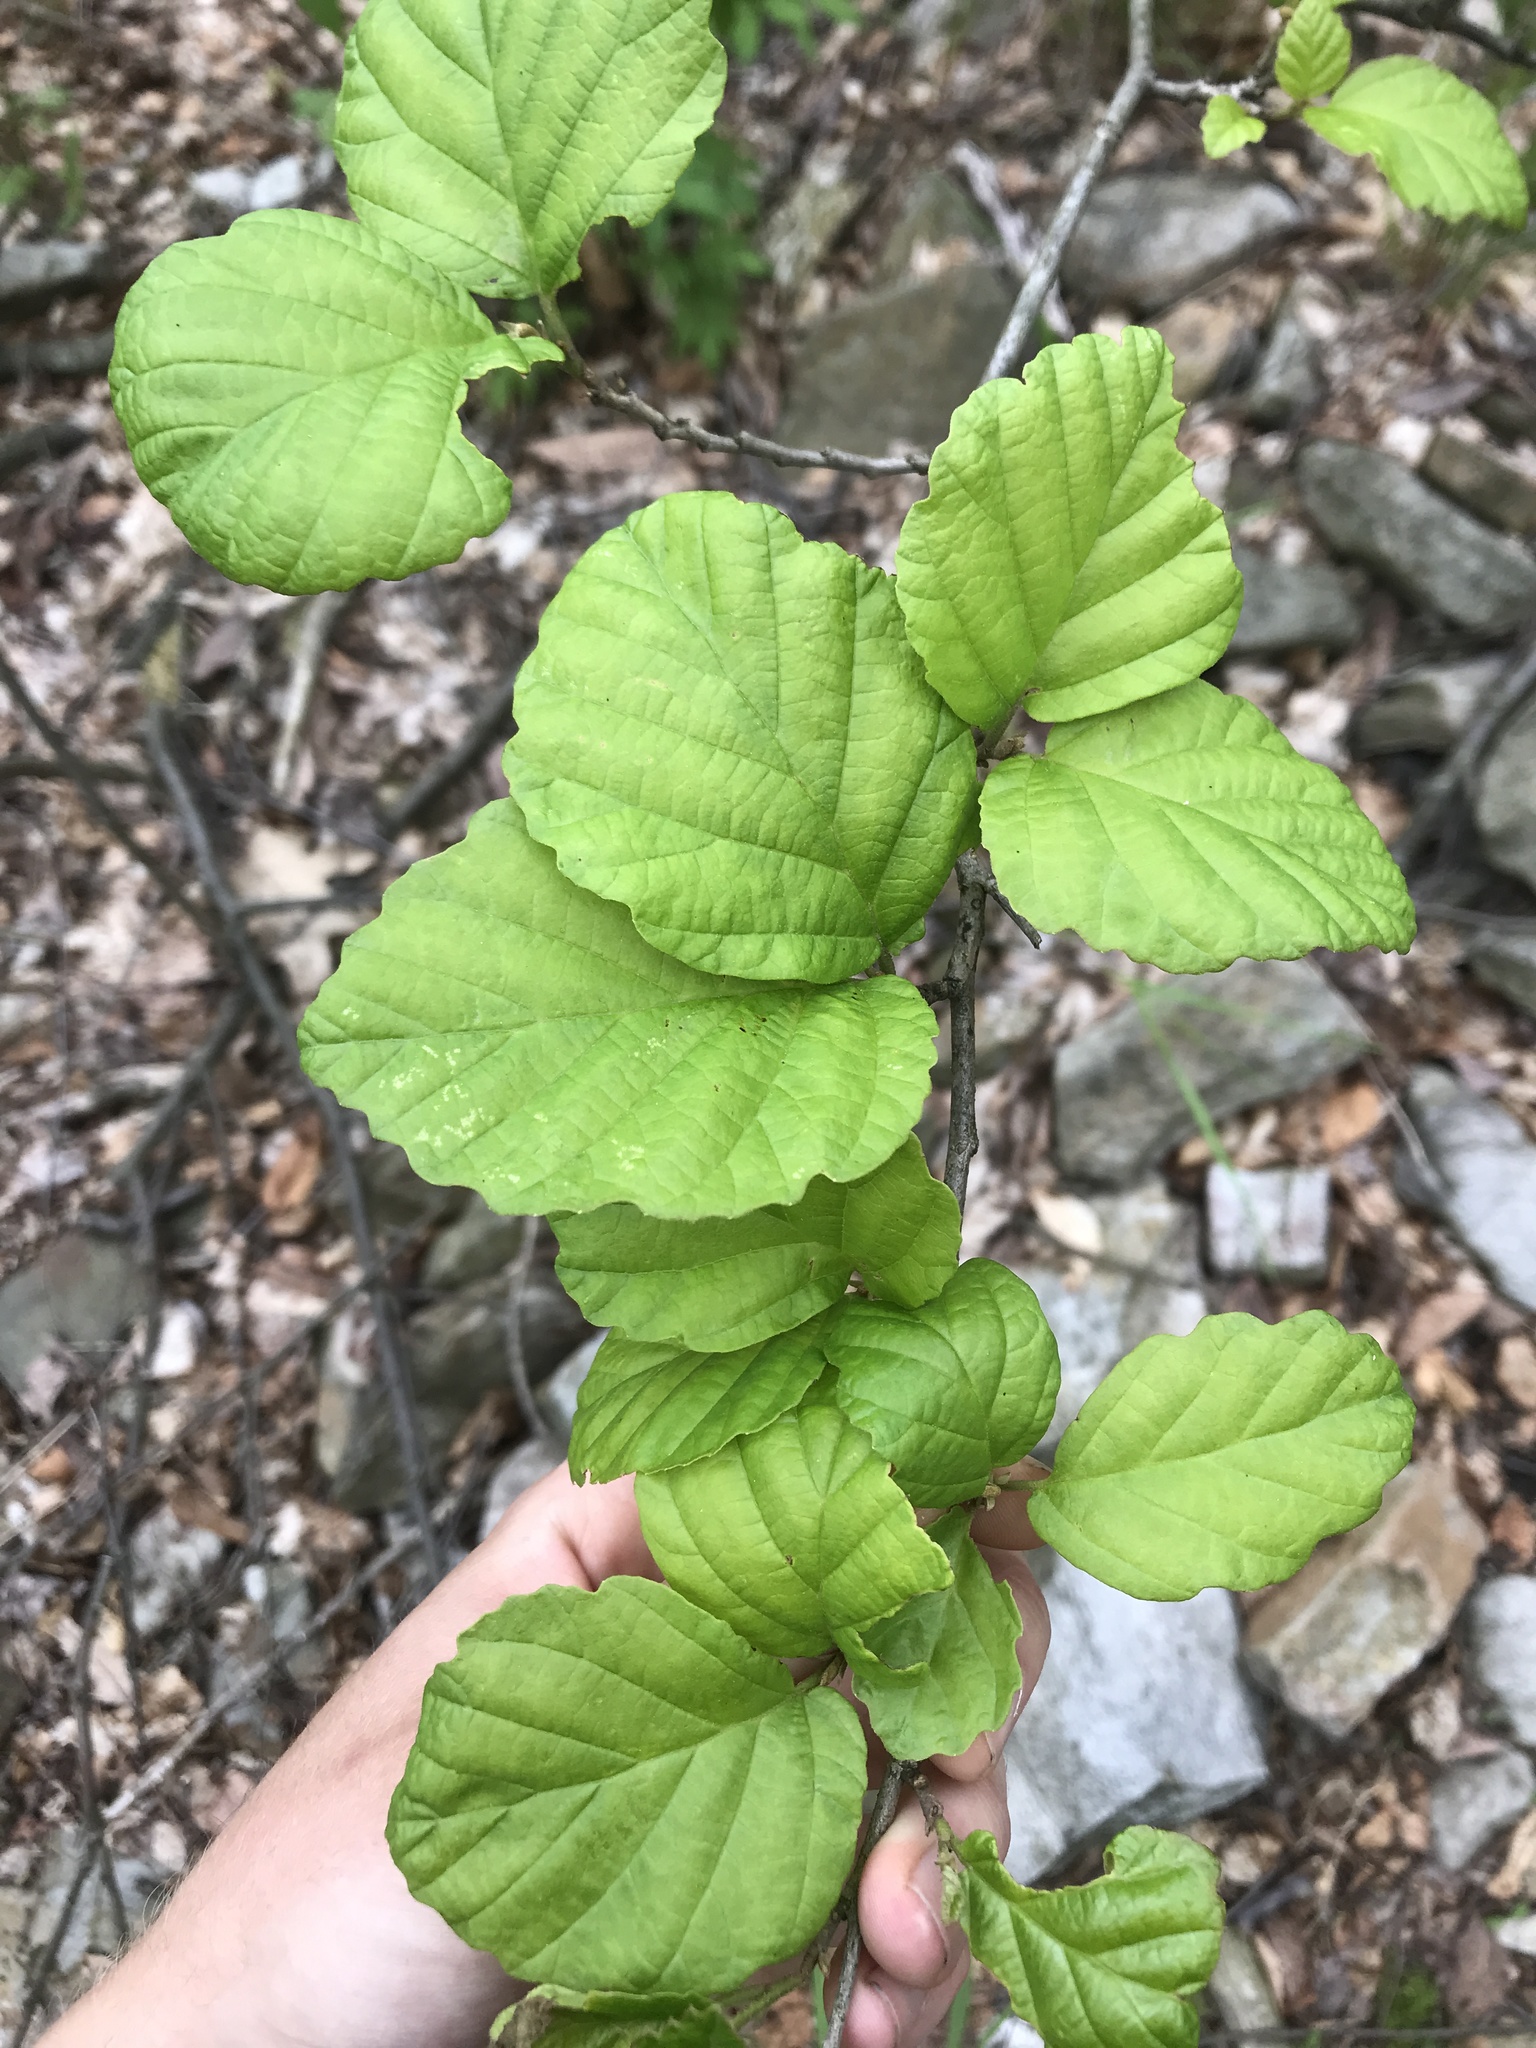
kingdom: Plantae
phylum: Tracheophyta
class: Magnoliopsida
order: Saxifragales
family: Hamamelidaceae
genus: Hamamelis
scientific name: Hamamelis virginiana
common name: Witch-hazel
